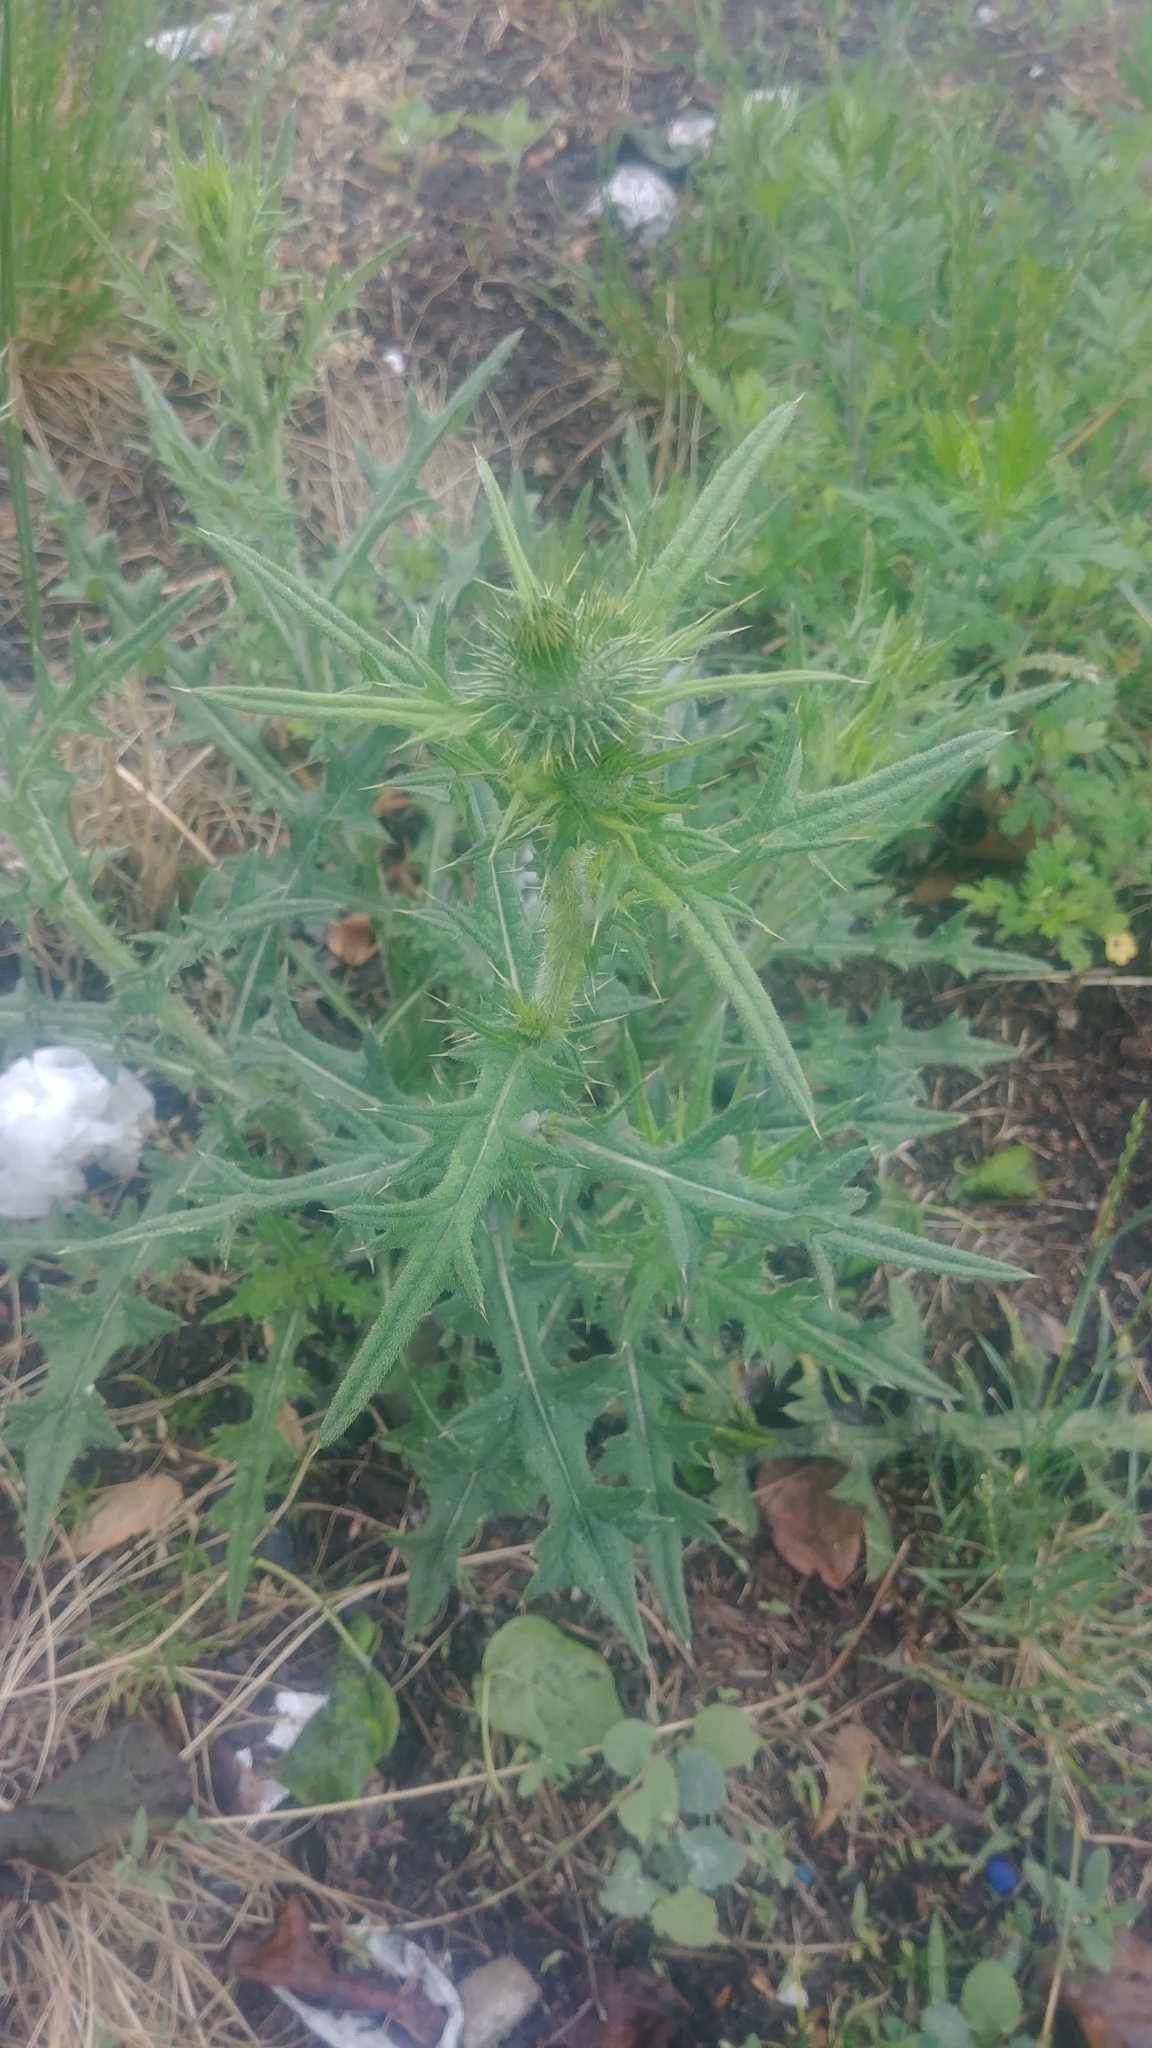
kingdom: Plantae
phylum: Tracheophyta
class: Magnoliopsida
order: Asterales
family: Asteraceae
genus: Cirsium
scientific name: Cirsium vulgare
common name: Bull thistle
